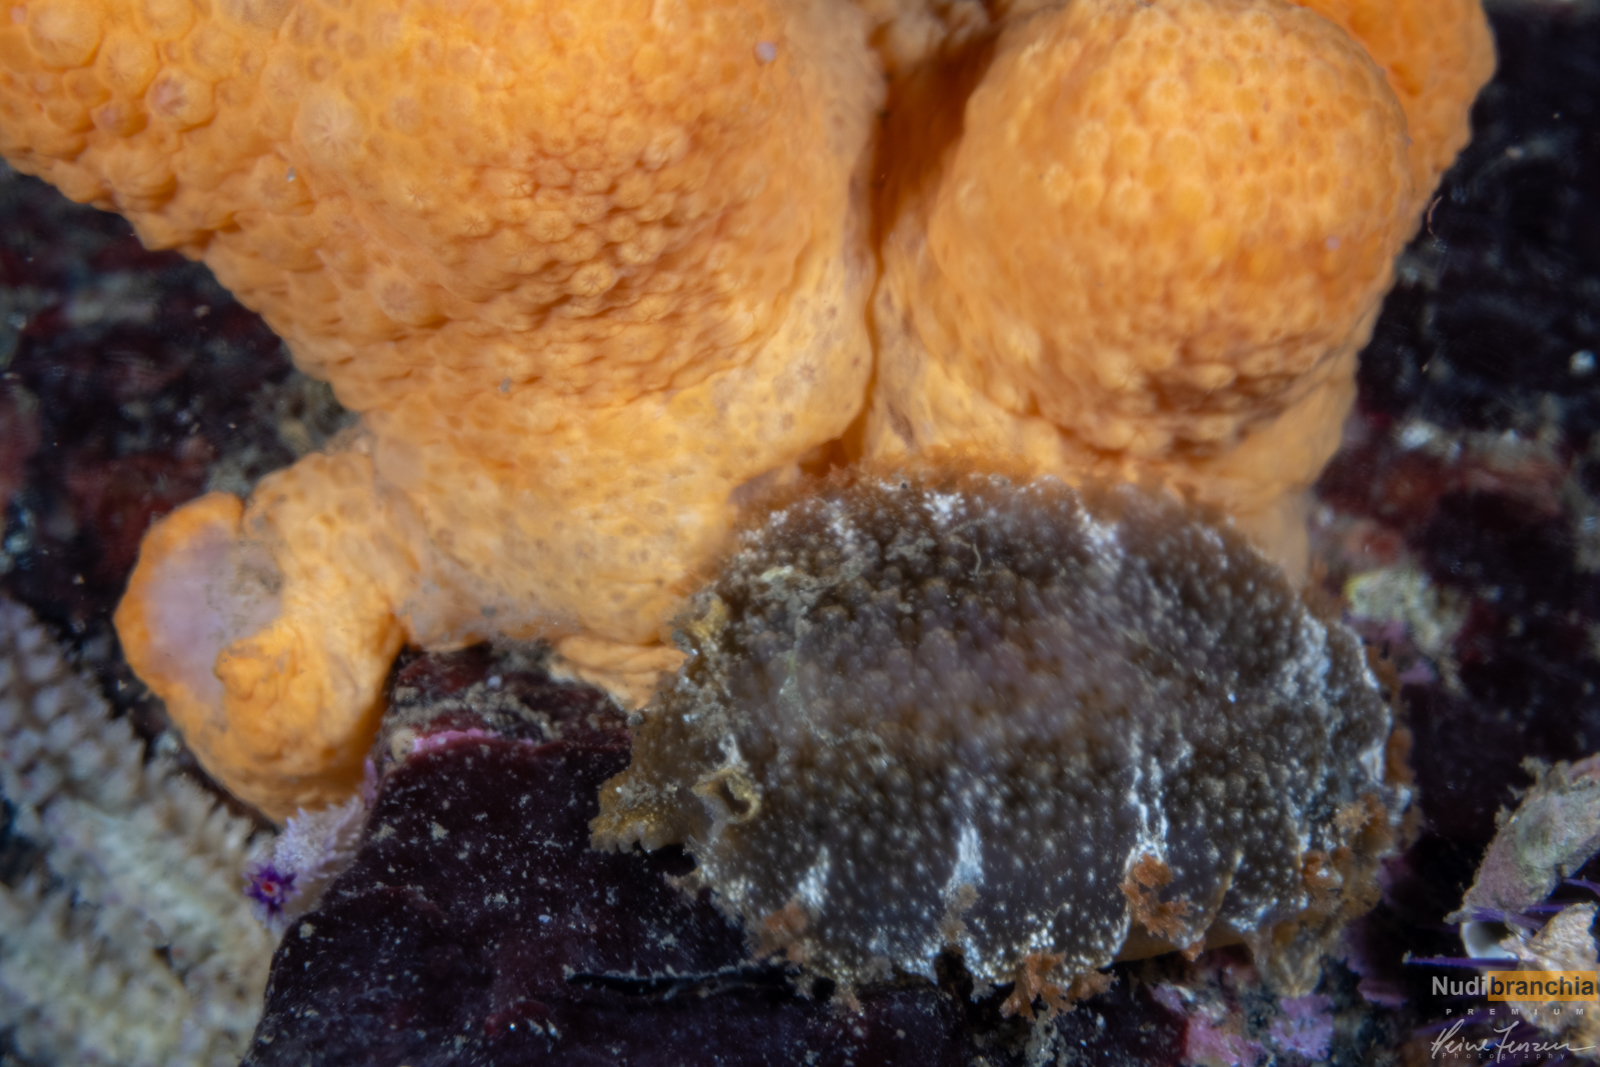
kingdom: Animalia
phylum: Mollusca
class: Gastropoda
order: Nudibranchia
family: Tritoniidae
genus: Tritonia
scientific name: Tritonia hombergii
